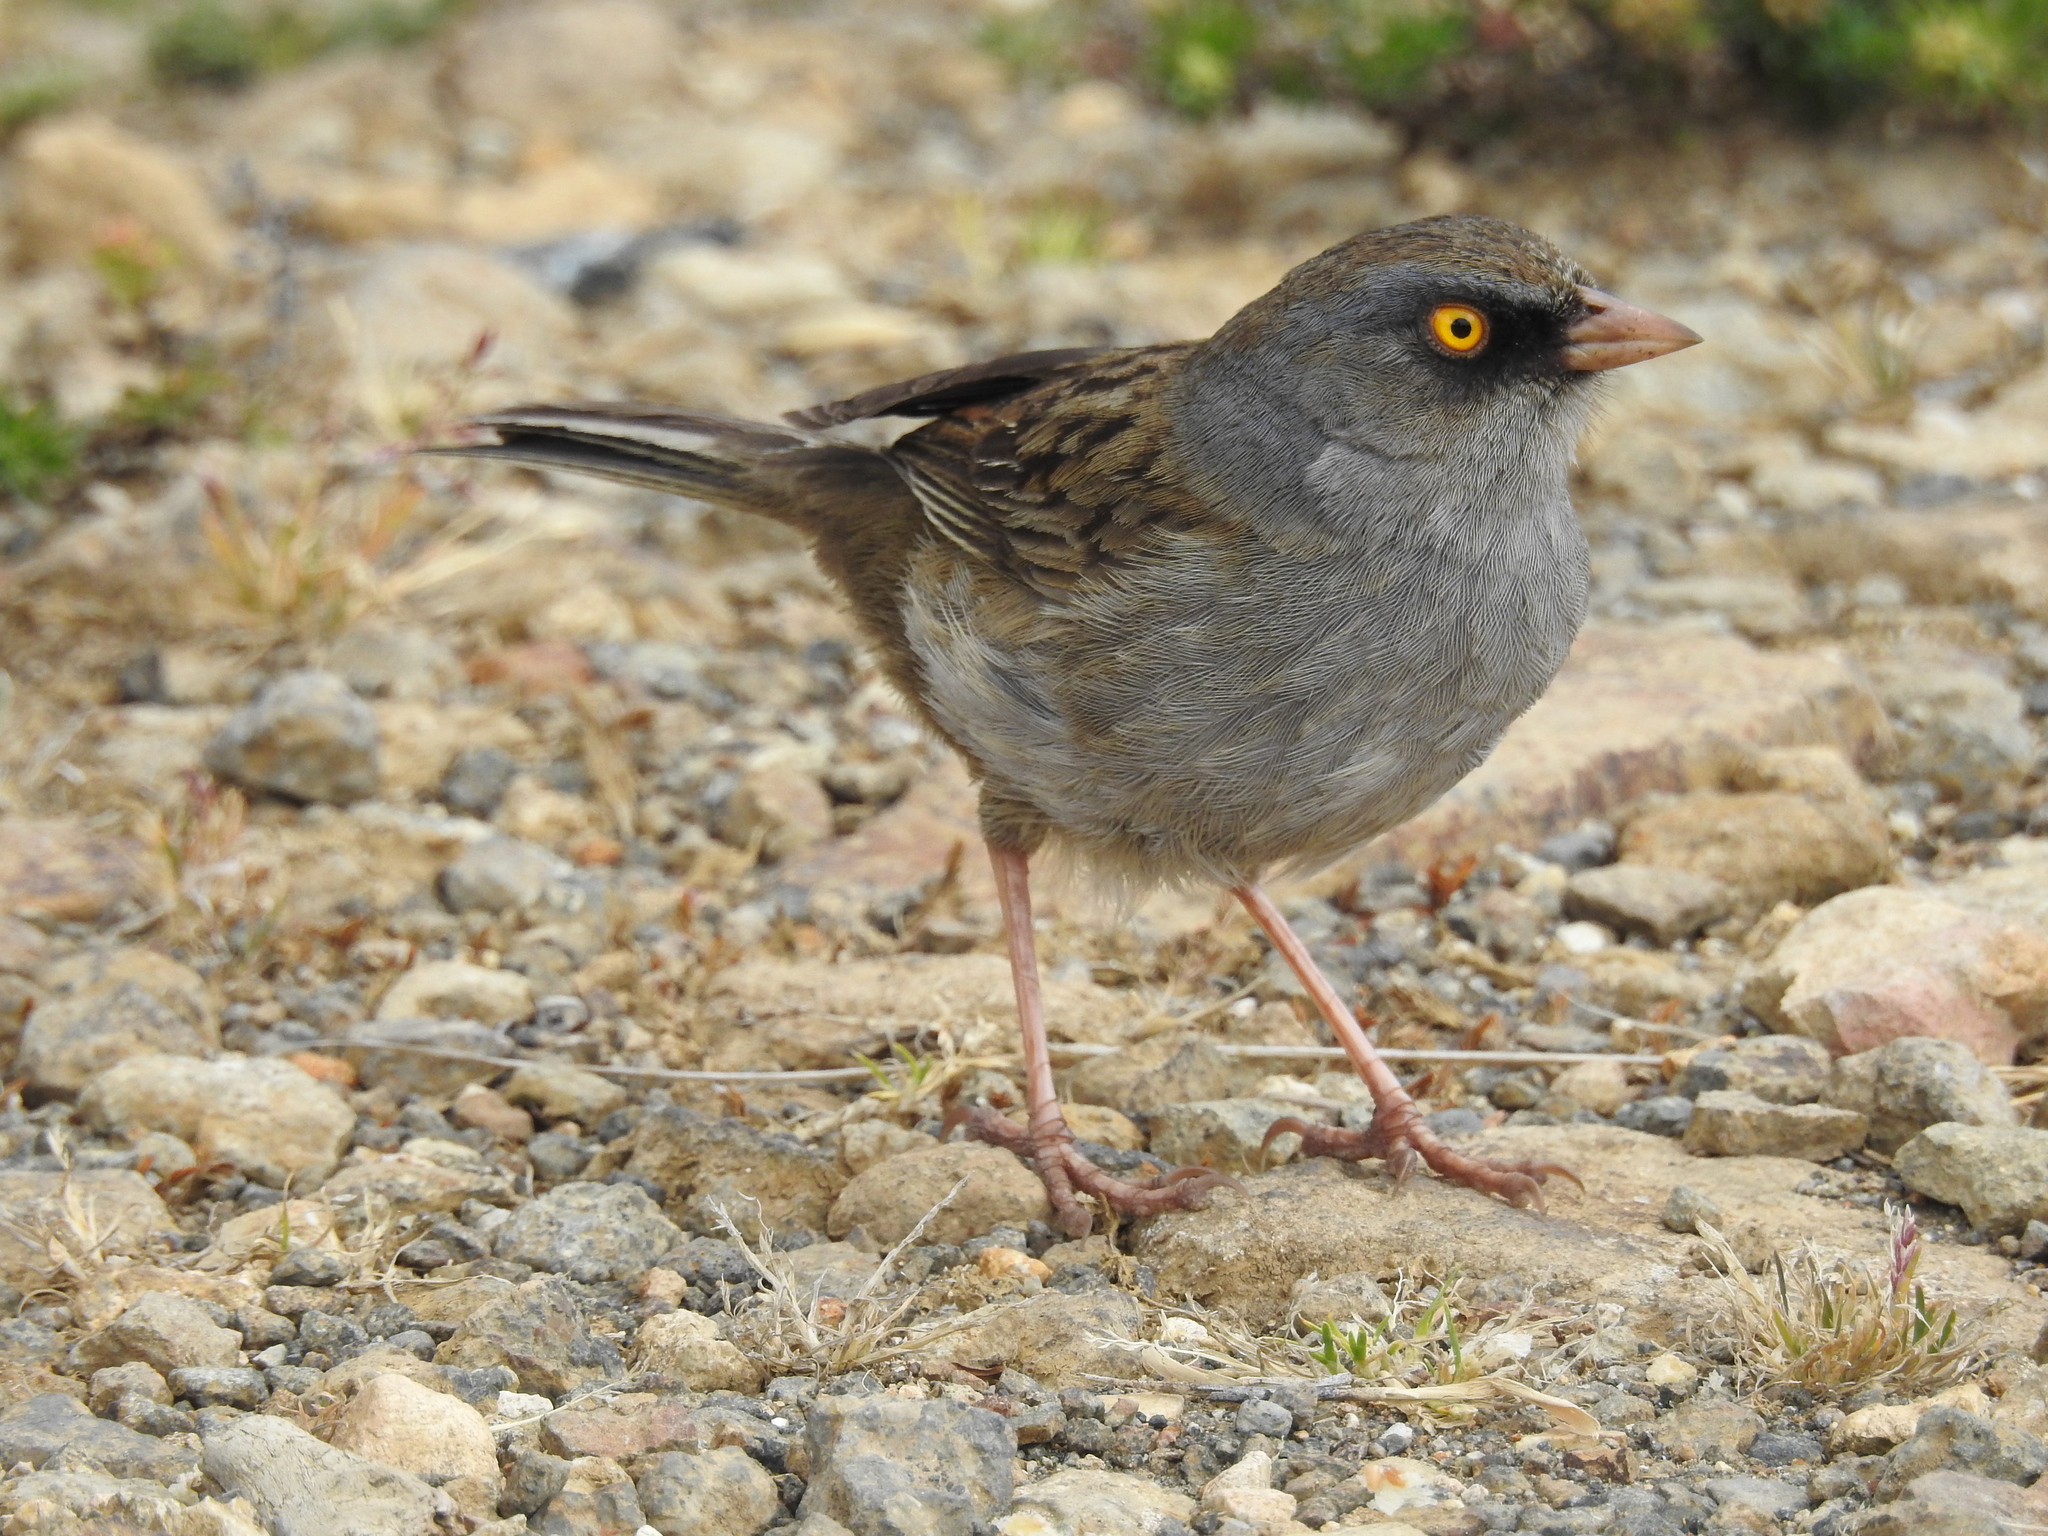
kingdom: Animalia
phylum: Chordata
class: Aves
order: Passeriformes
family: Passerellidae
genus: Junco
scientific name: Junco vulcani
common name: Volcano junco
